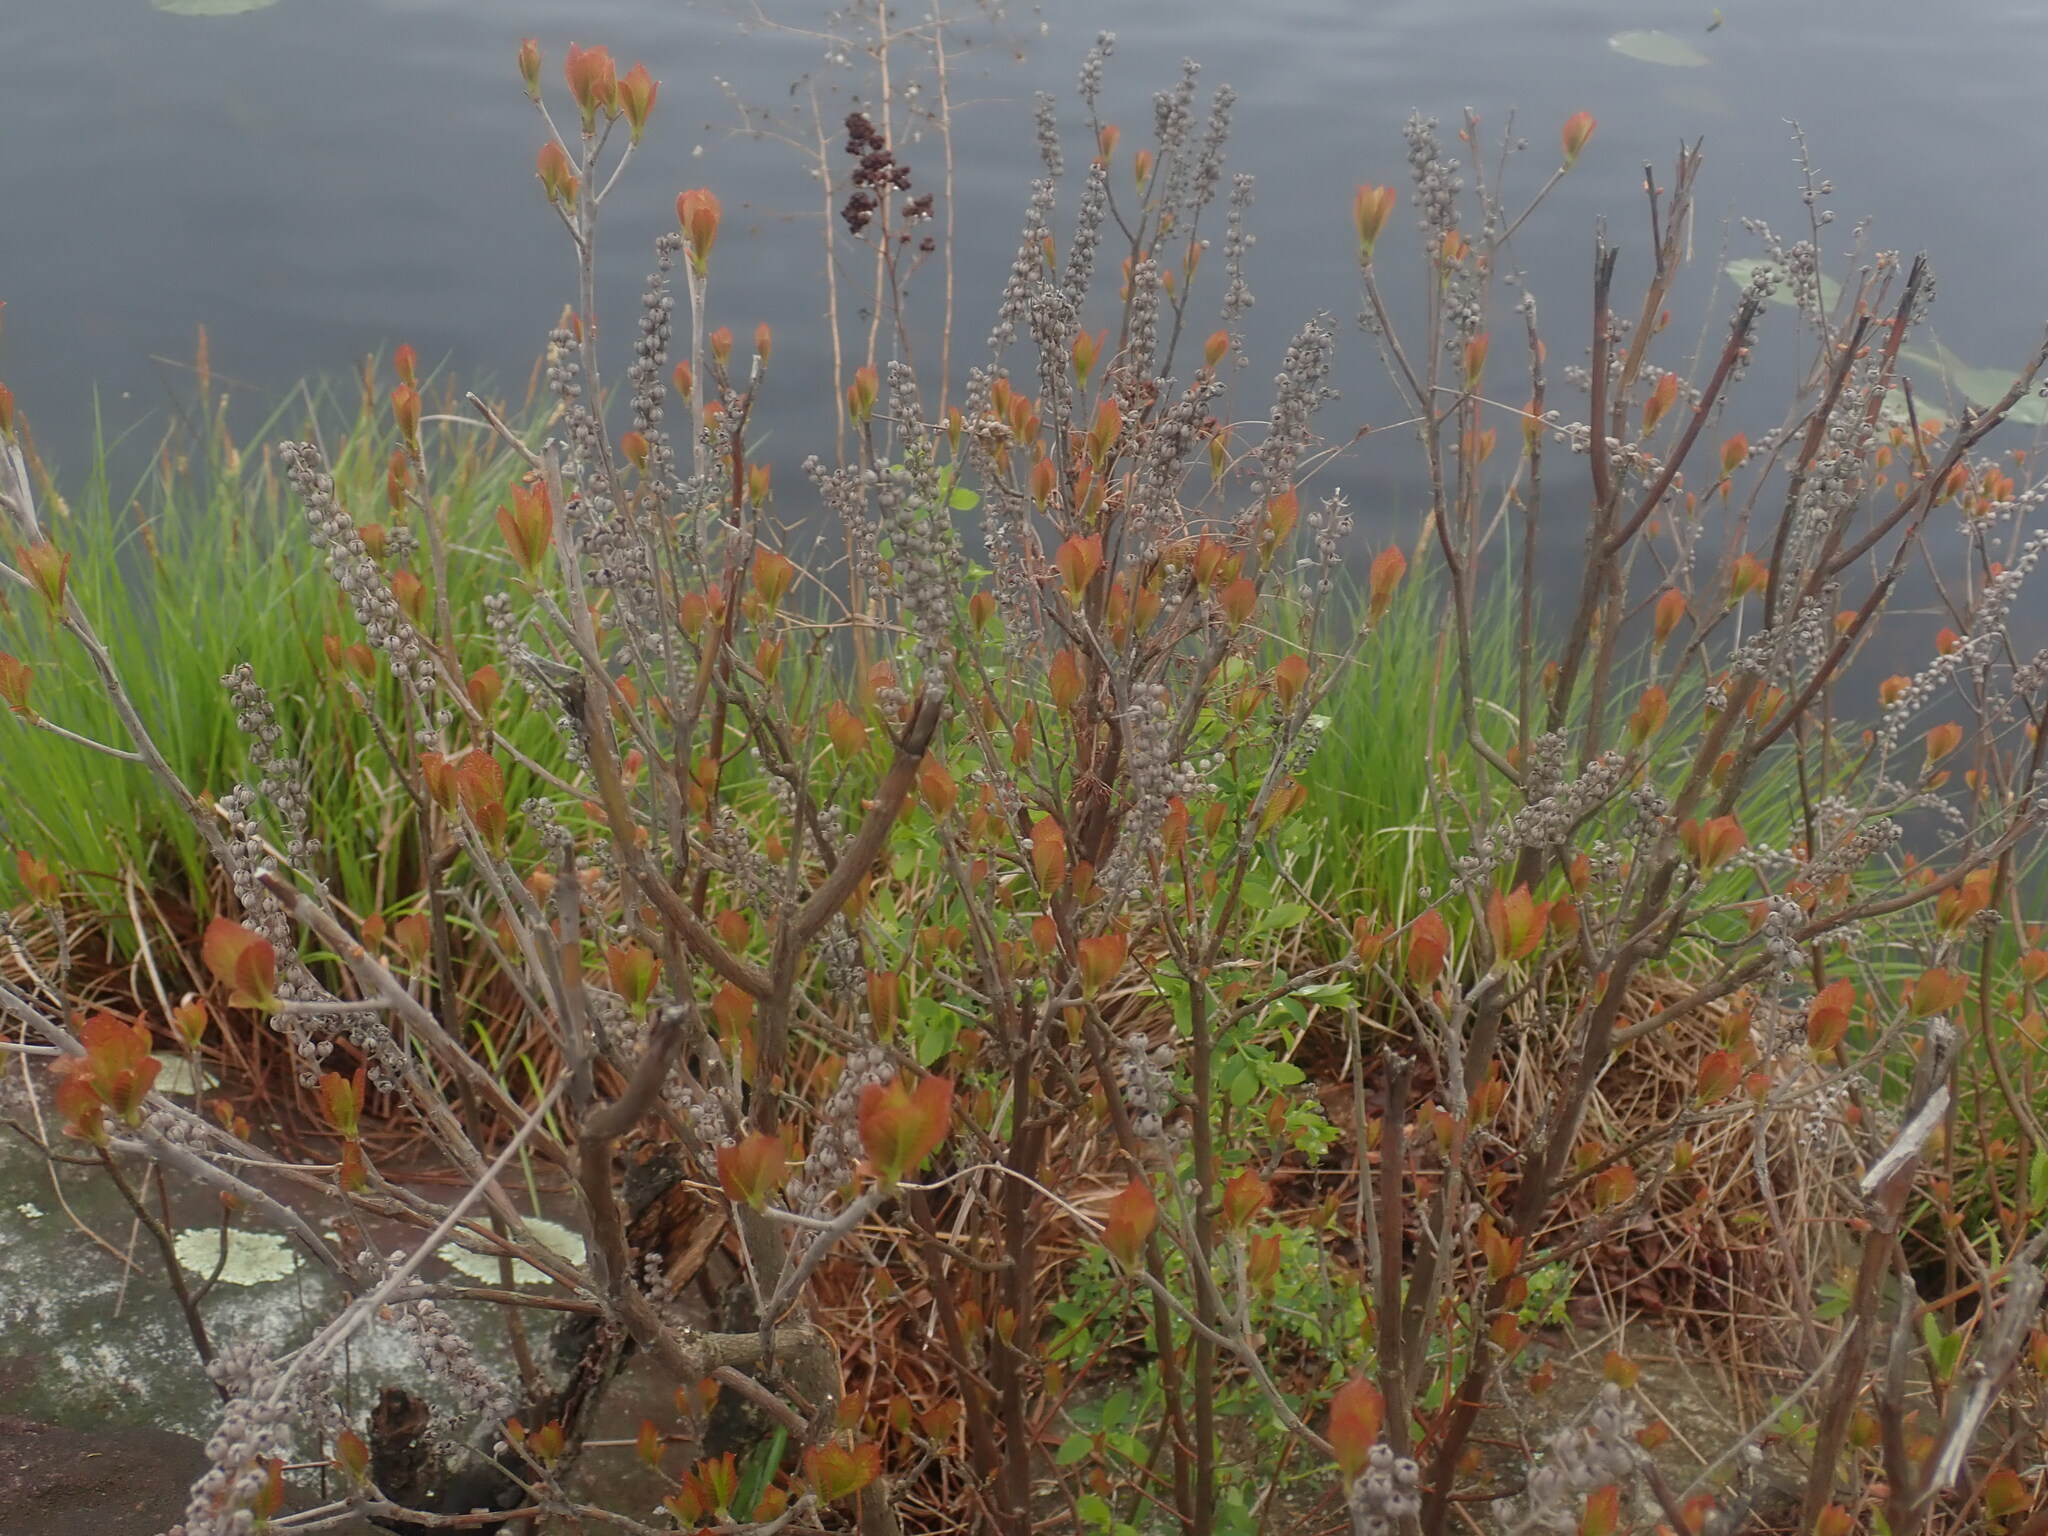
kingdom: Plantae
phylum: Tracheophyta
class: Magnoliopsida
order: Ericales
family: Clethraceae
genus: Clethra
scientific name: Clethra alnifolia
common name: Sweet pepperbush
